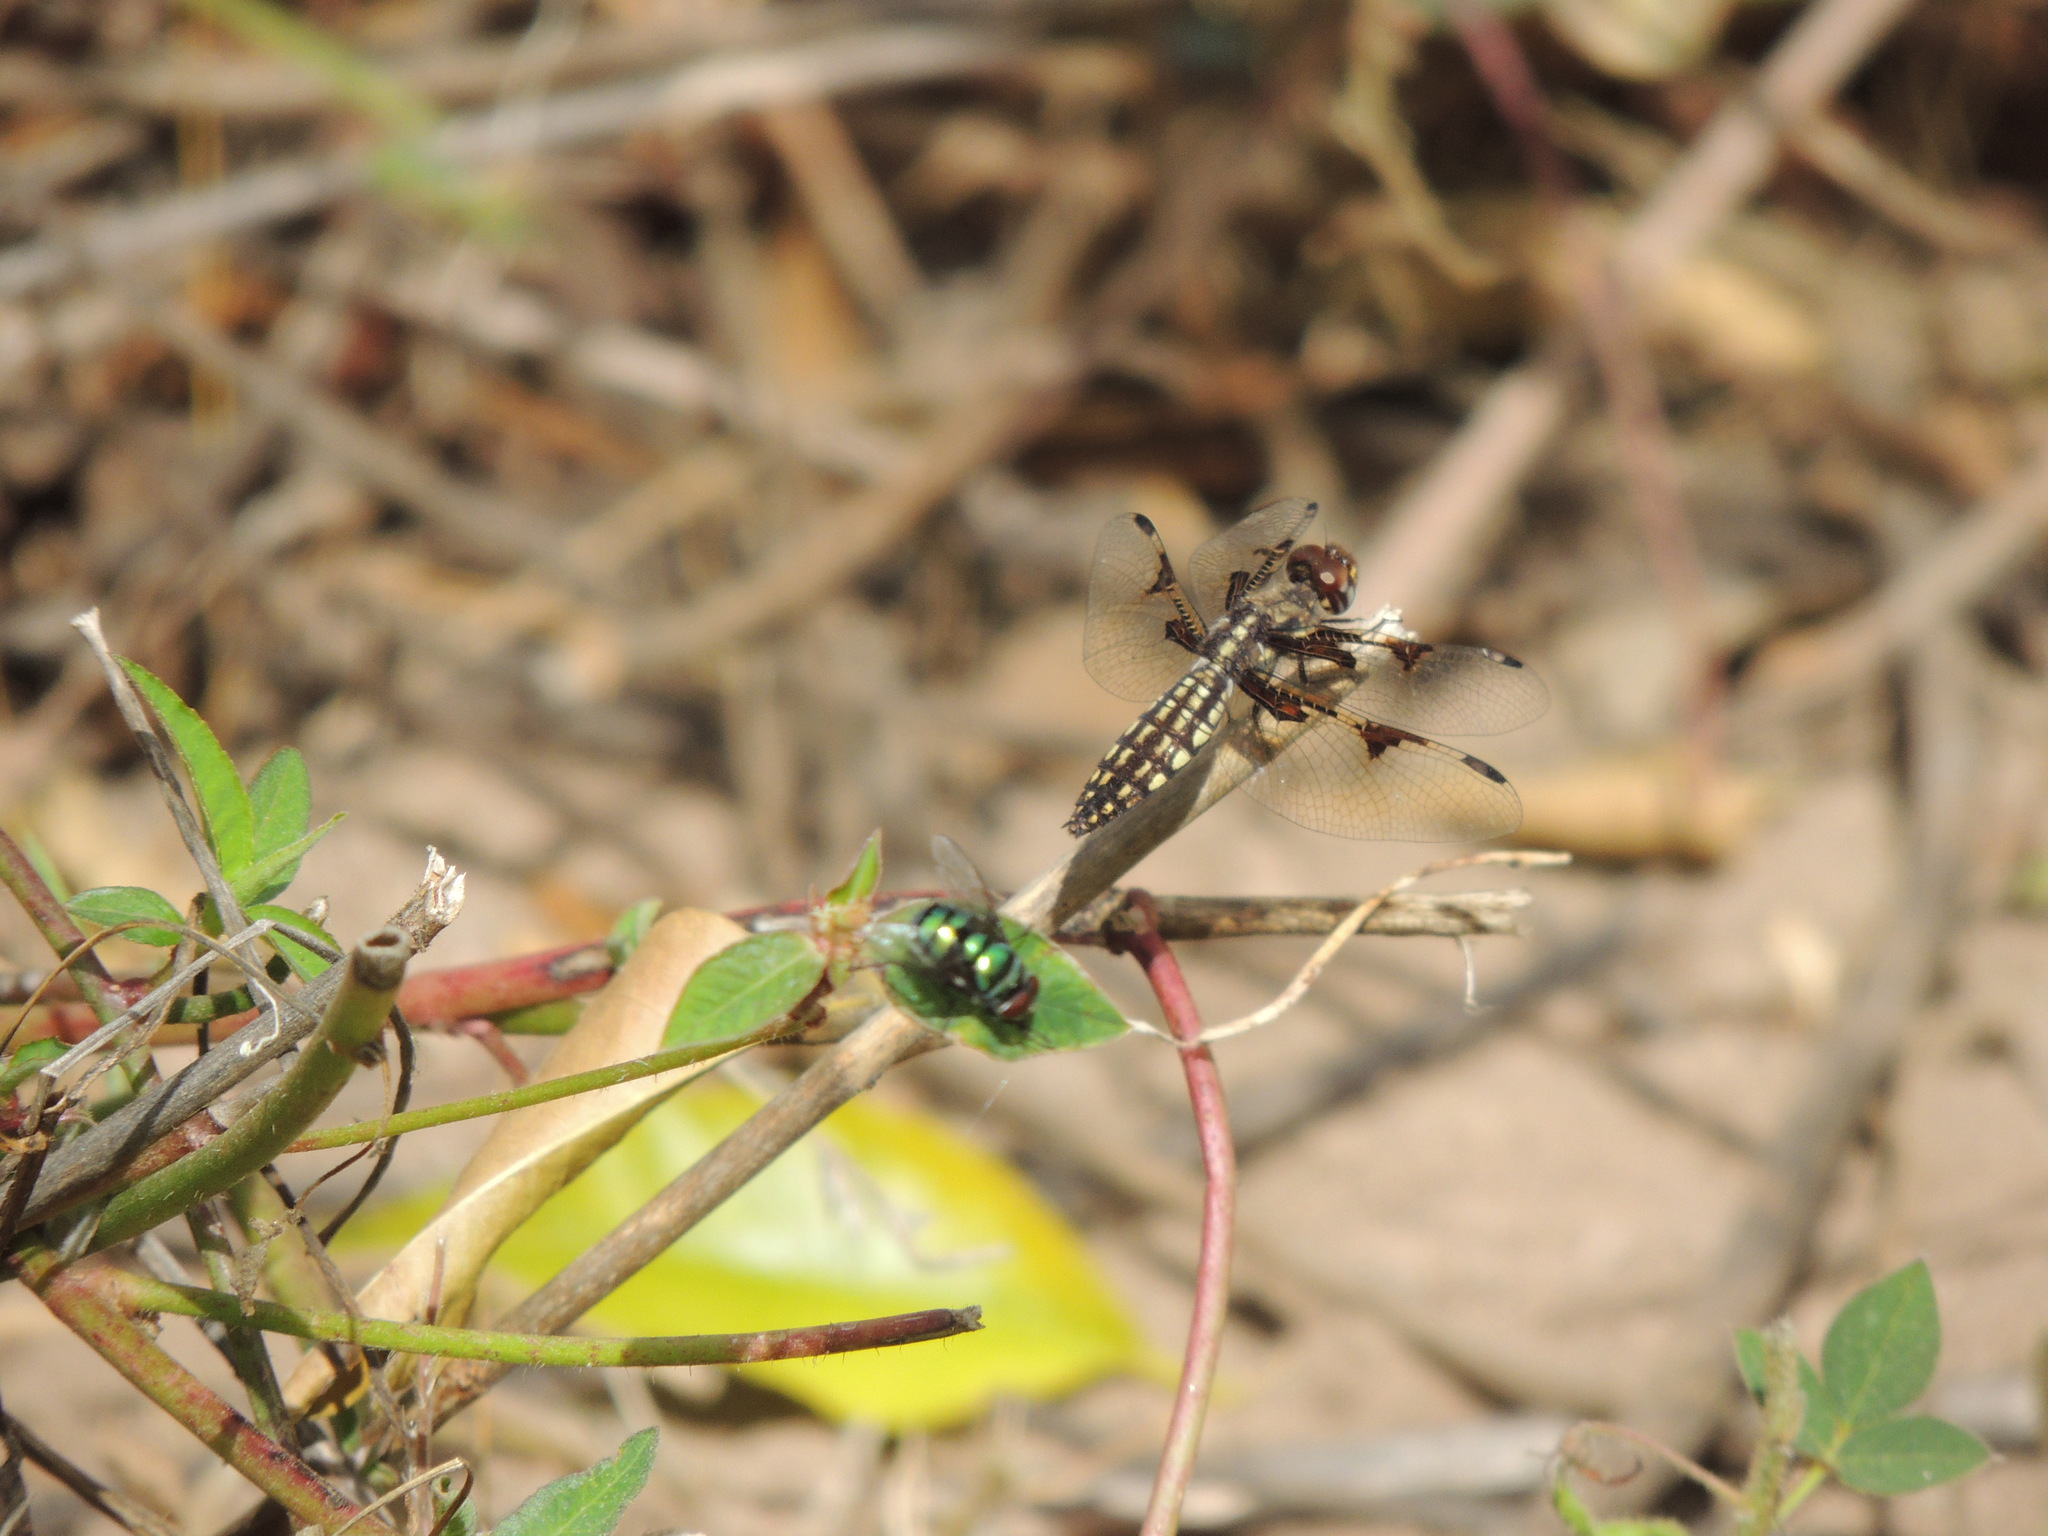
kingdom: Animalia
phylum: Arthropoda
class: Insecta
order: Odonata
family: Libellulidae
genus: Palpopleura
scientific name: Palpopleura vestita
